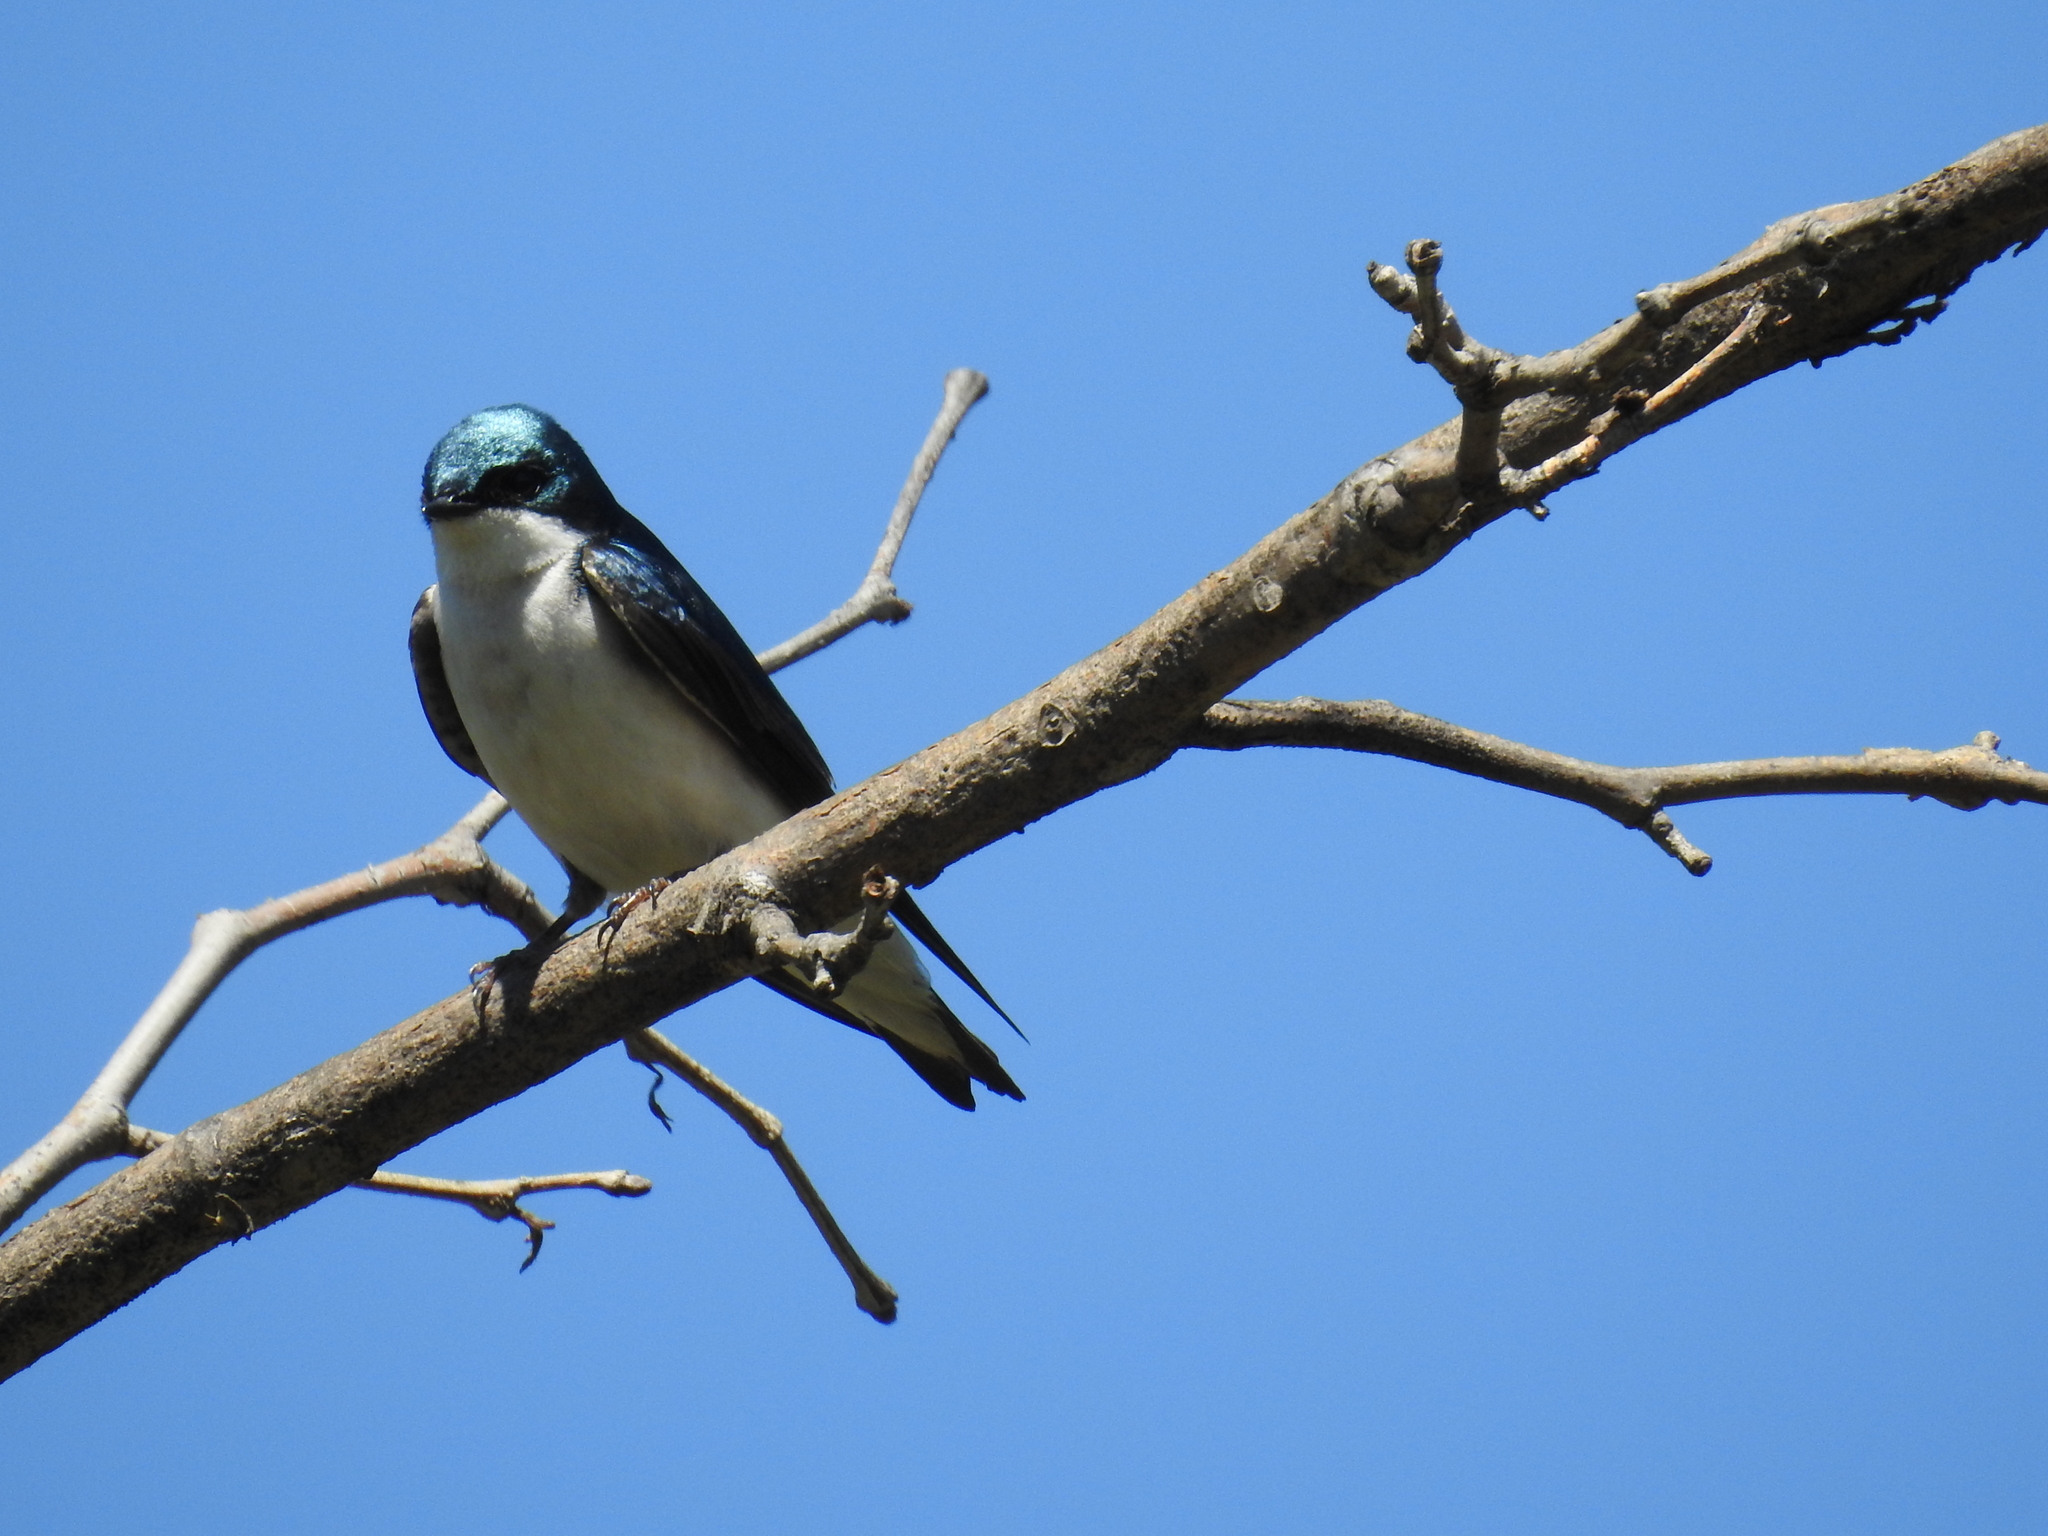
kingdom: Animalia
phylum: Chordata
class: Aves
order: Passeriformes
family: Hirundinidae
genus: Tachycineta
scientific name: Tachycineta bicolor
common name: Tree swallow
